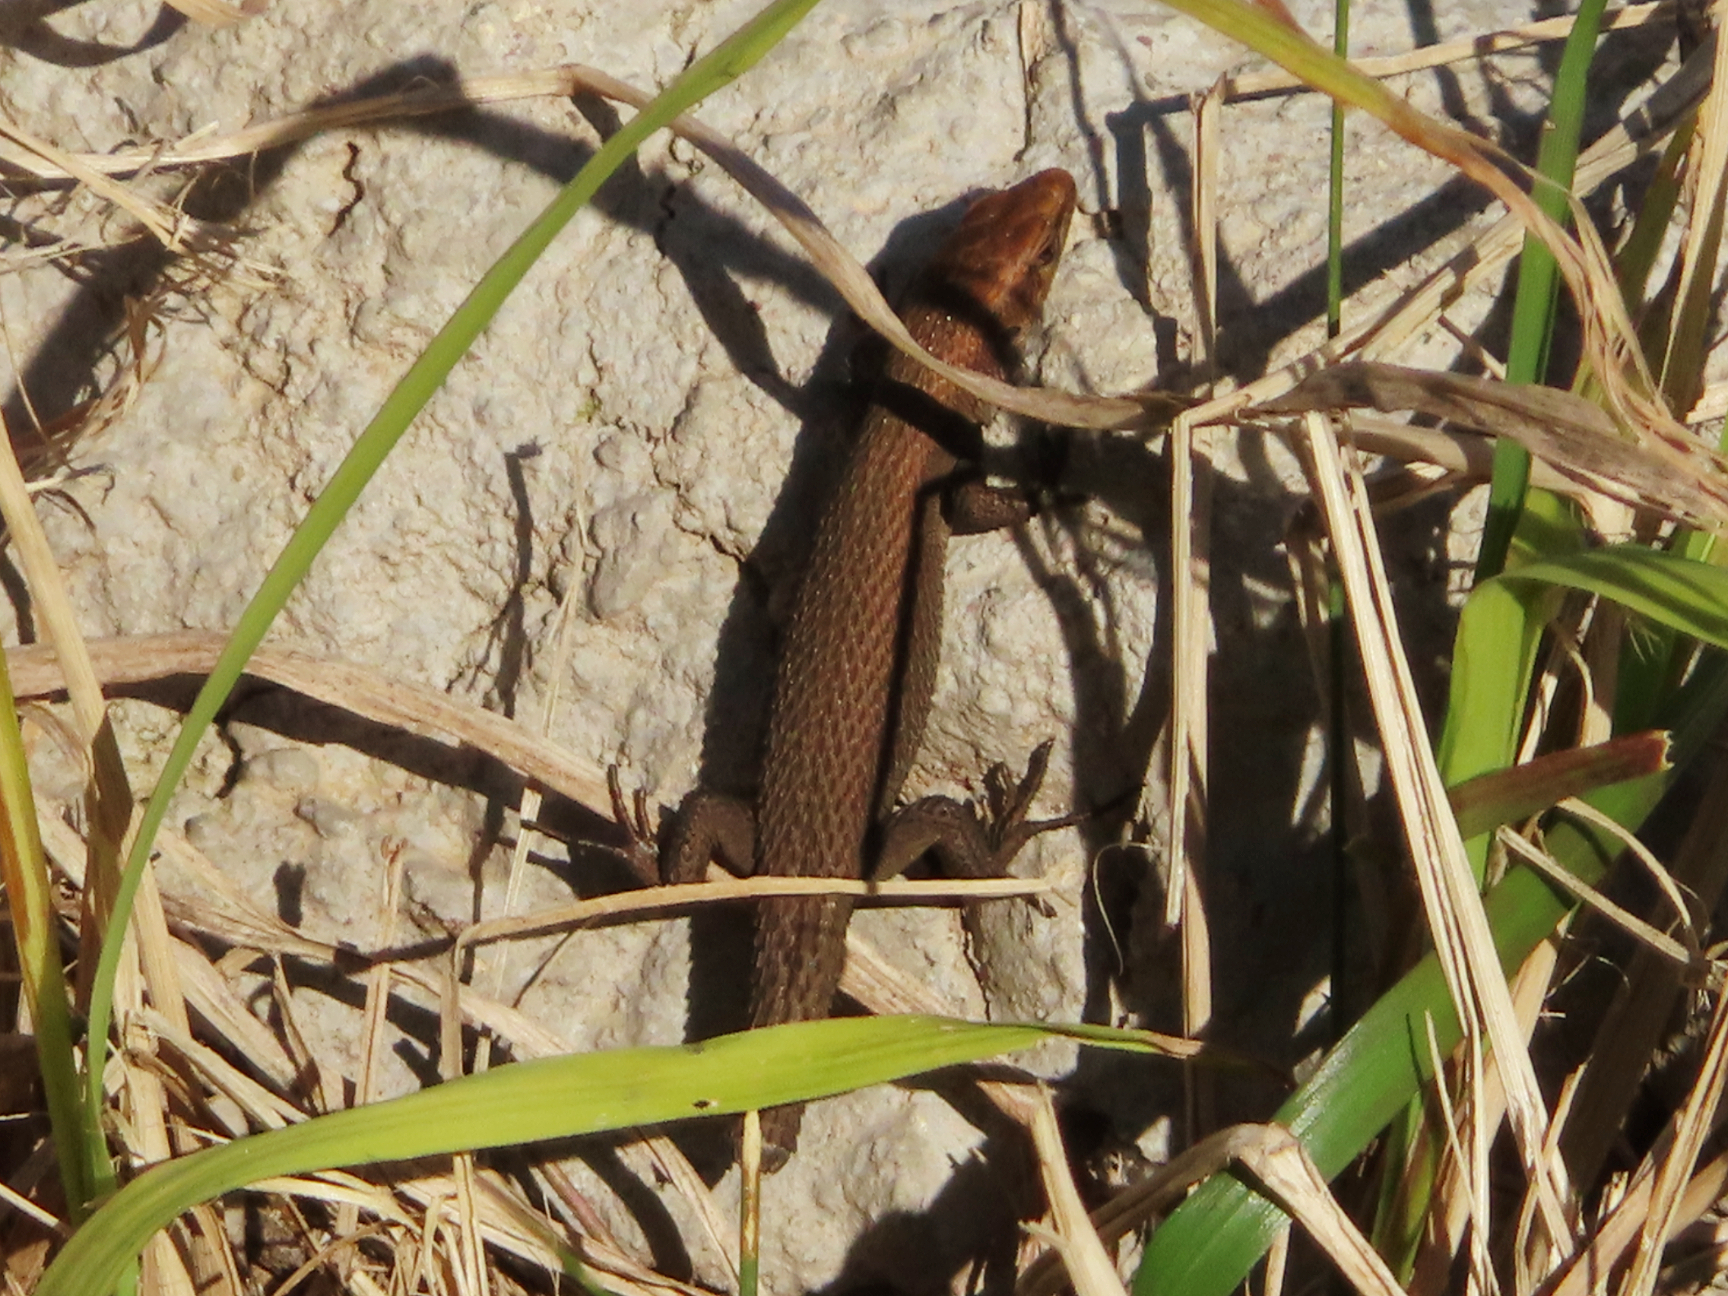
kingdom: Animalia
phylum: Chordata
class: Squamata
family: Lacertidae
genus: Algyroides
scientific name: Algyroides moreoticus
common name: Greek algyroides
